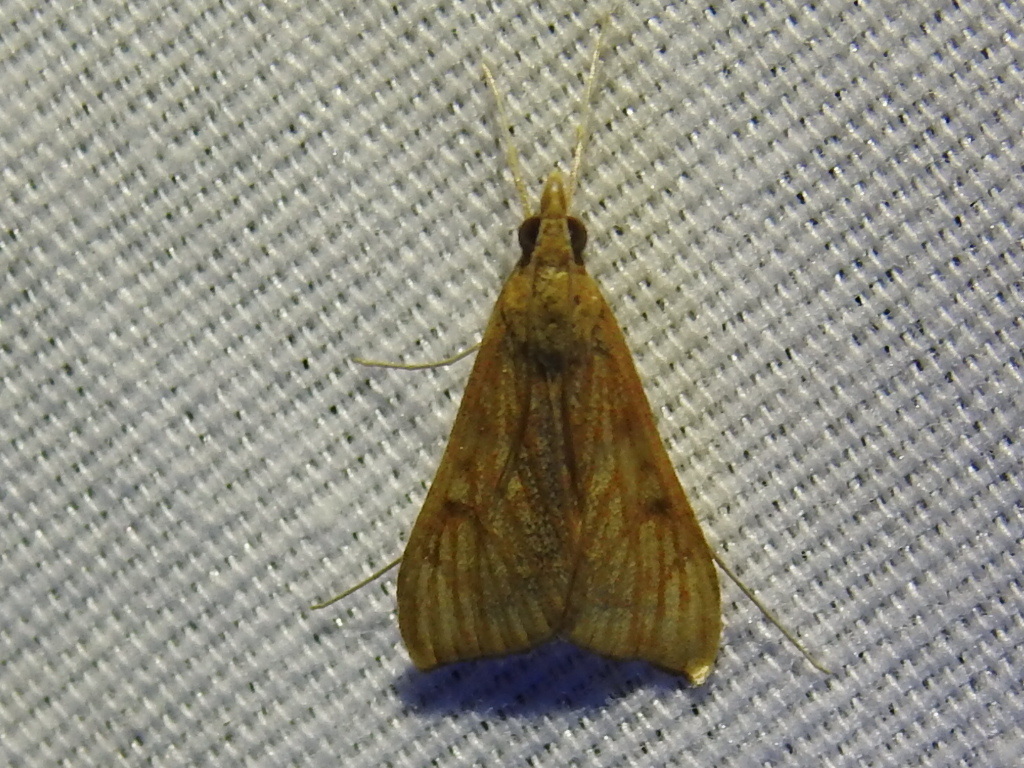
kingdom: Animalia
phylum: Arthropoda
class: Insecta
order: Lepidoptera
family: Crambidae
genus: Antigastra
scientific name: Antigastra catalaunalis
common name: Spanish dot
